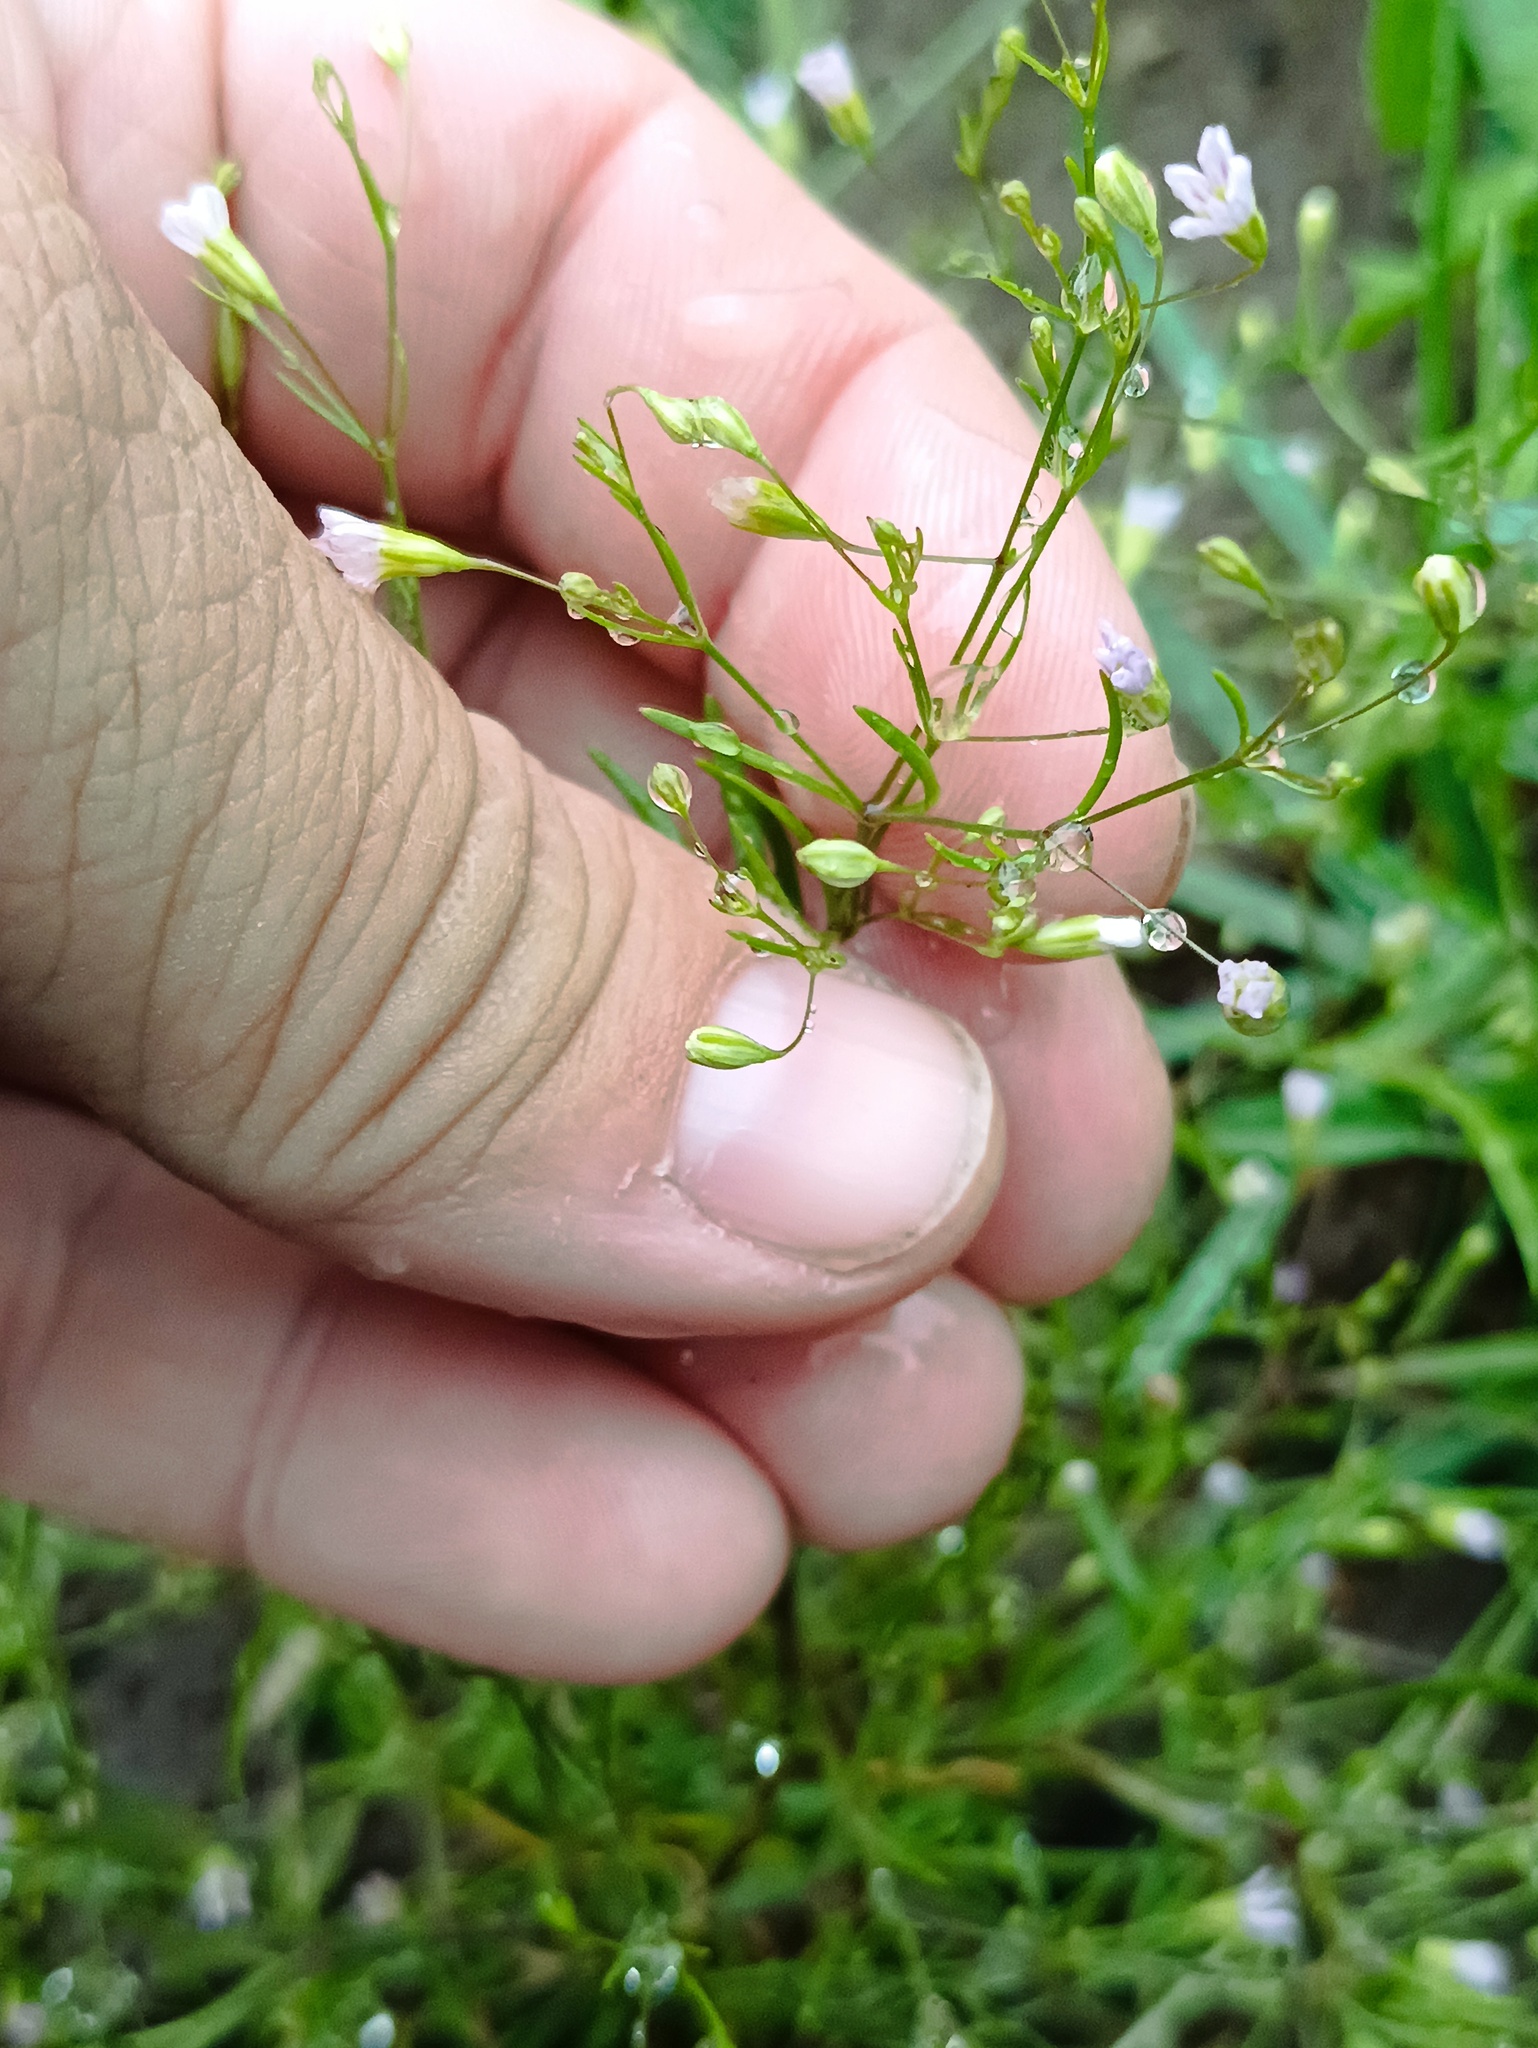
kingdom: Plantae
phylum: Tracheophyta
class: Magnoliopsida
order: Caryophyllales
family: Caryophyllaceae
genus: Psammophiliella
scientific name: Psammophiliella muralis
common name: Cushion baby's-breath
